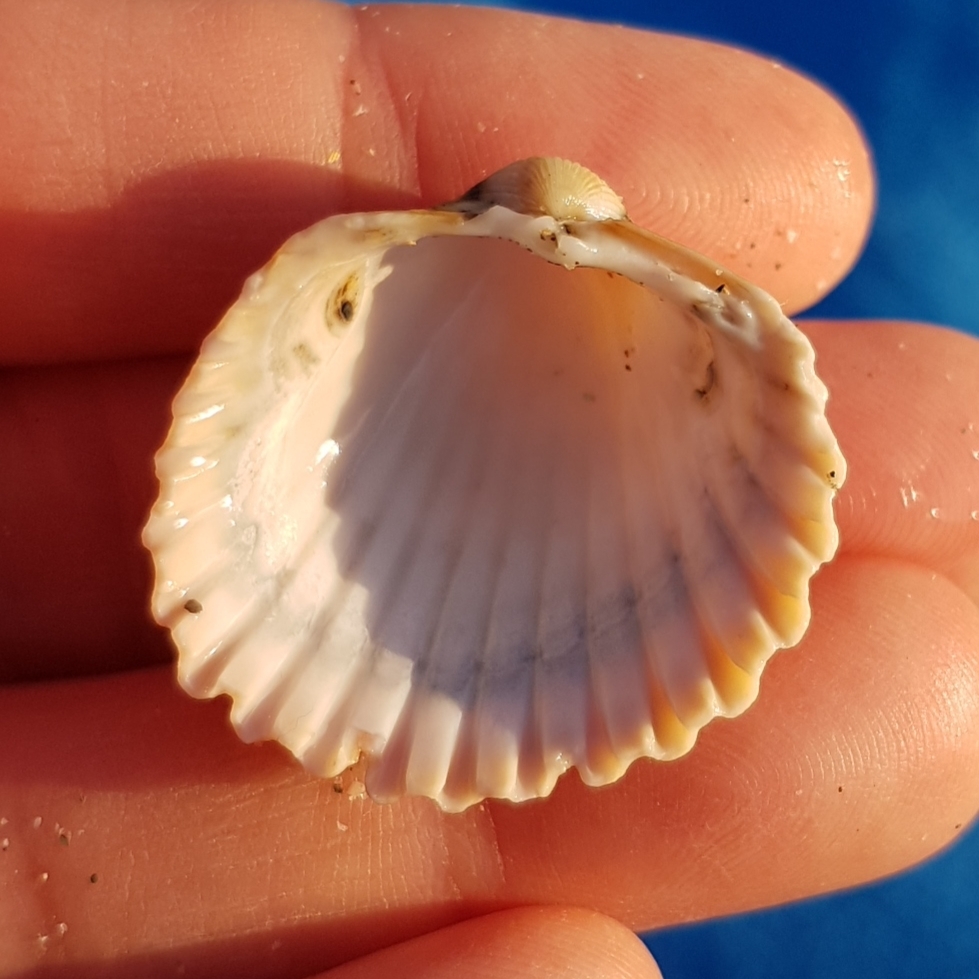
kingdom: Animalia
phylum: Mollusca
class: Bivalvia
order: Cardiida
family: Cardiidae
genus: Acanthocardia
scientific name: Acanthocardia tuberculata
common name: Rough cockle
